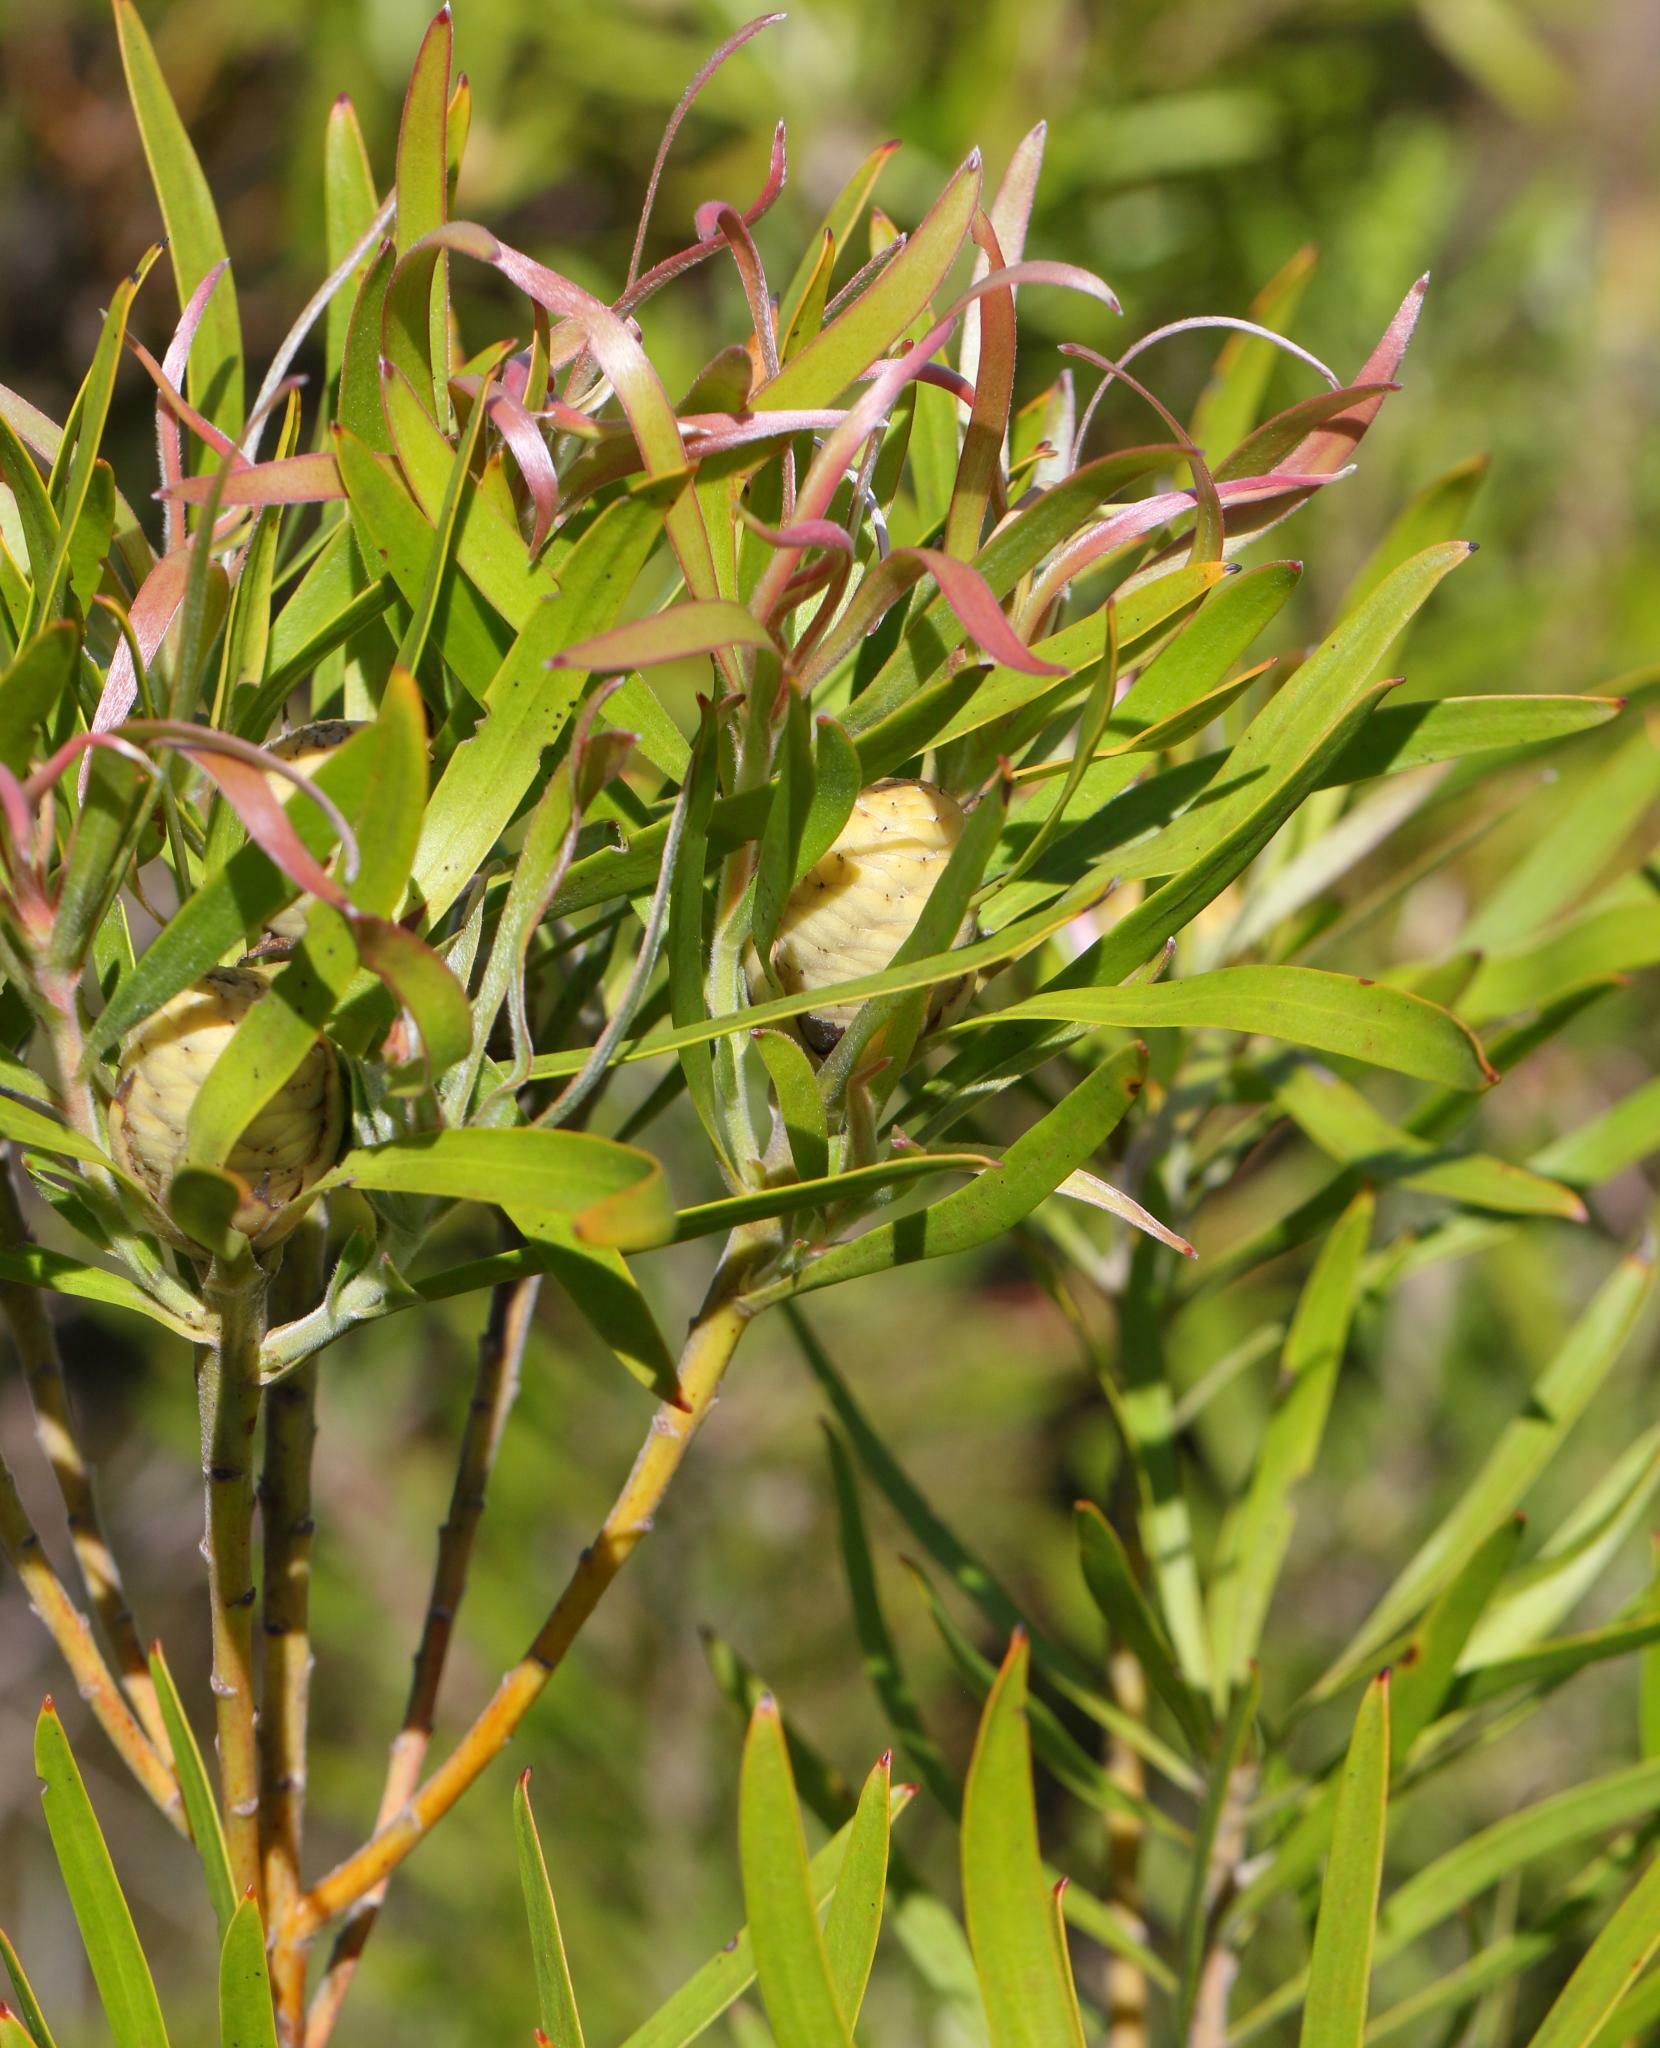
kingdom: Plantae
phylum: Tracheophyta
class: Magnoliopsida
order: Proteales
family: Proteaceae
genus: Leucadendron
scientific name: Leucadendron eucalyptifolium
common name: Gum-leaved conebush
